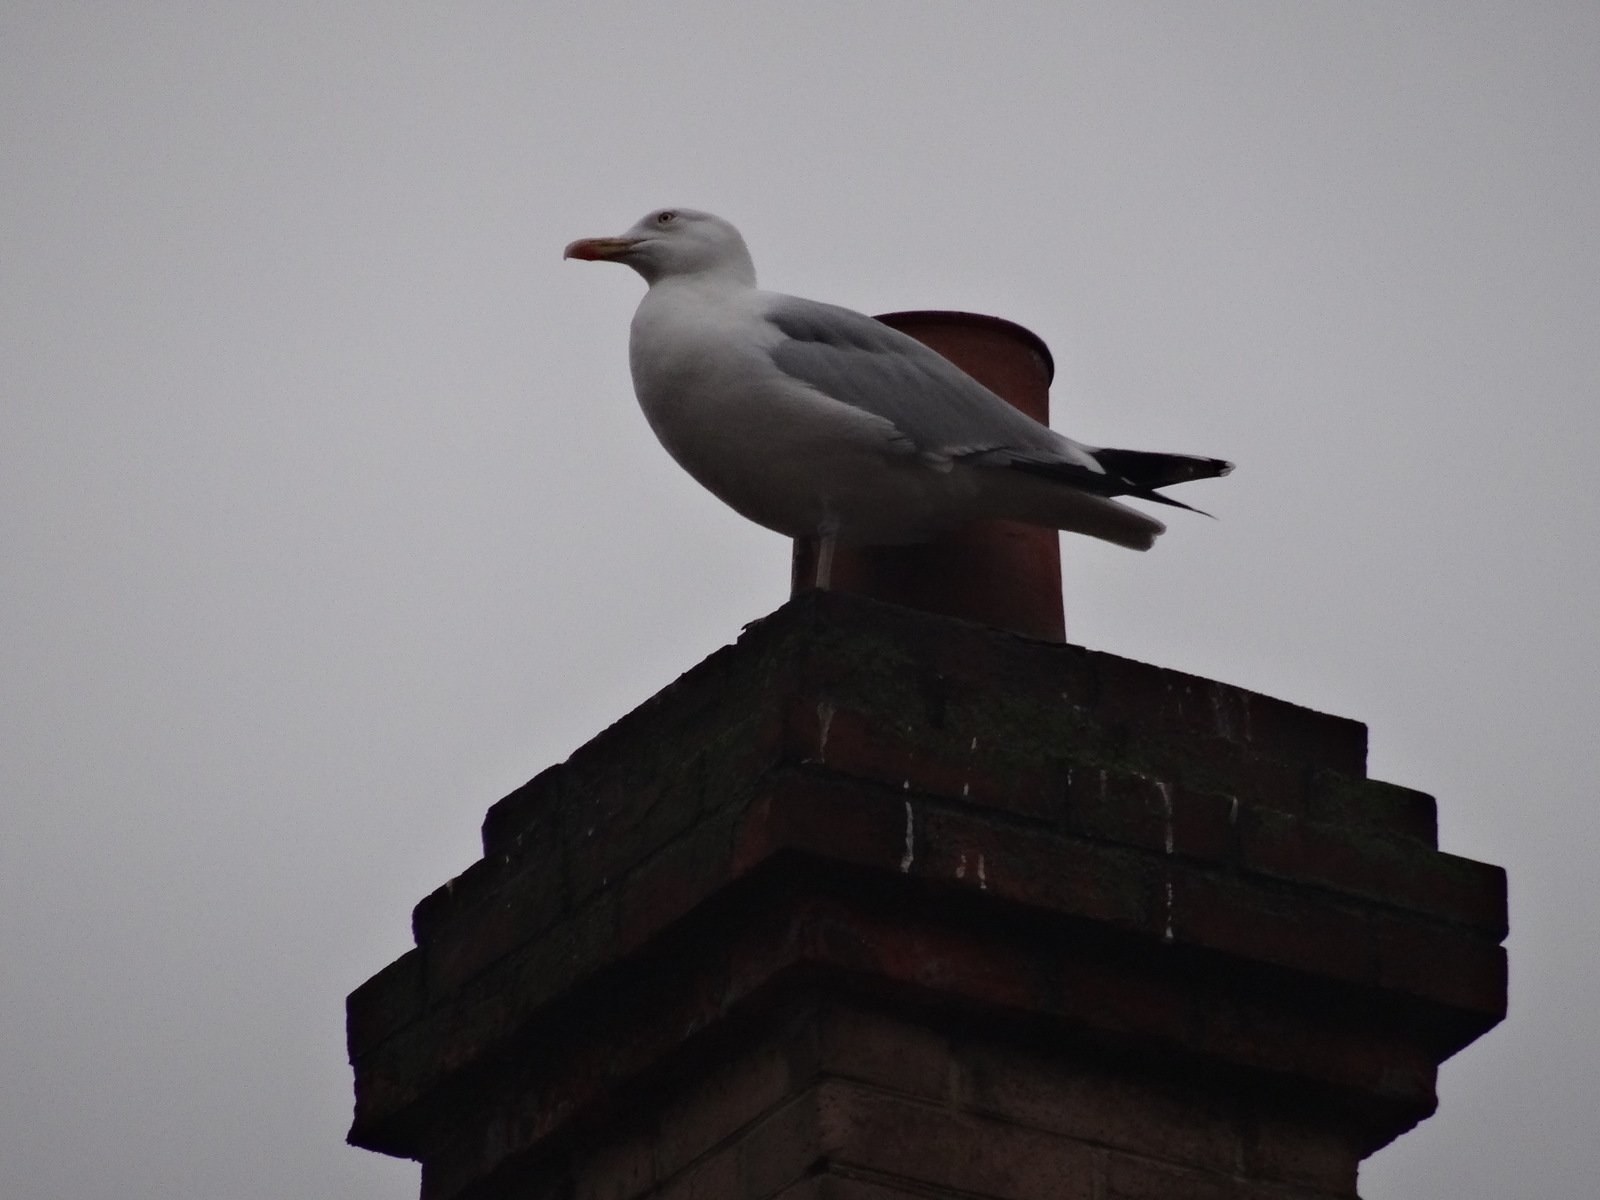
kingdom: Animalia
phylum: Chordata
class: Aves
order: Charadriiformes
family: Laridae
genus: Larus
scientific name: Larus argentatus
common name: Herring gull
